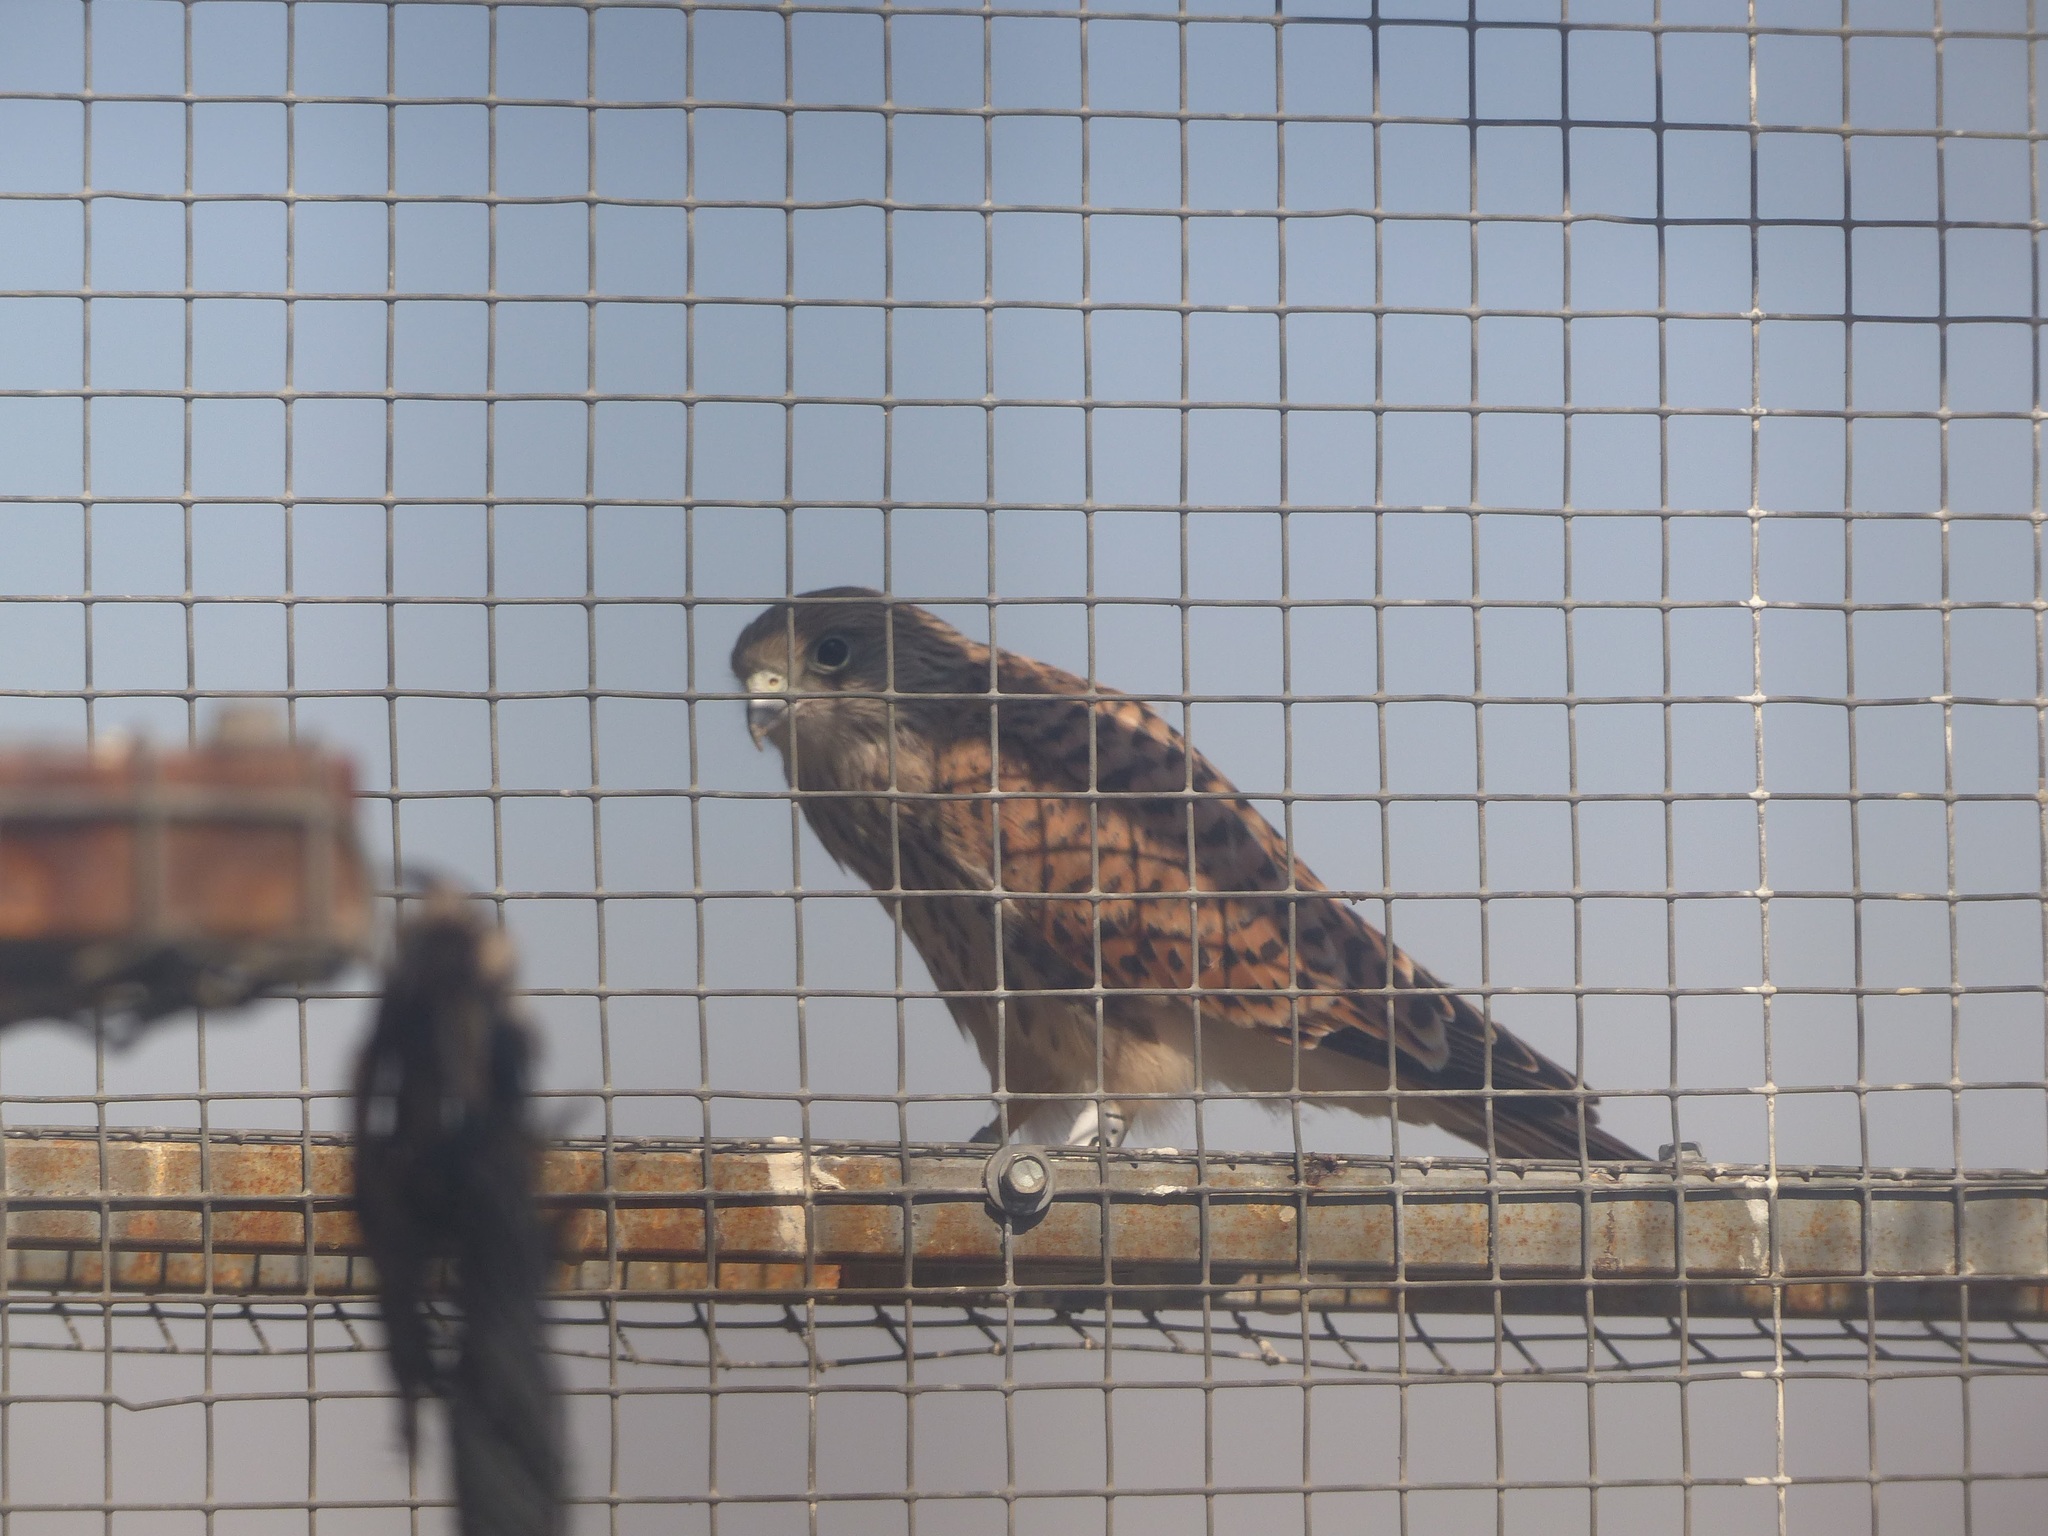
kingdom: Animalia
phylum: Chordata
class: Aves
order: Falconiformes
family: Falconidae
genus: Falco
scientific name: Falco naumanni
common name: Lesser kestrel
